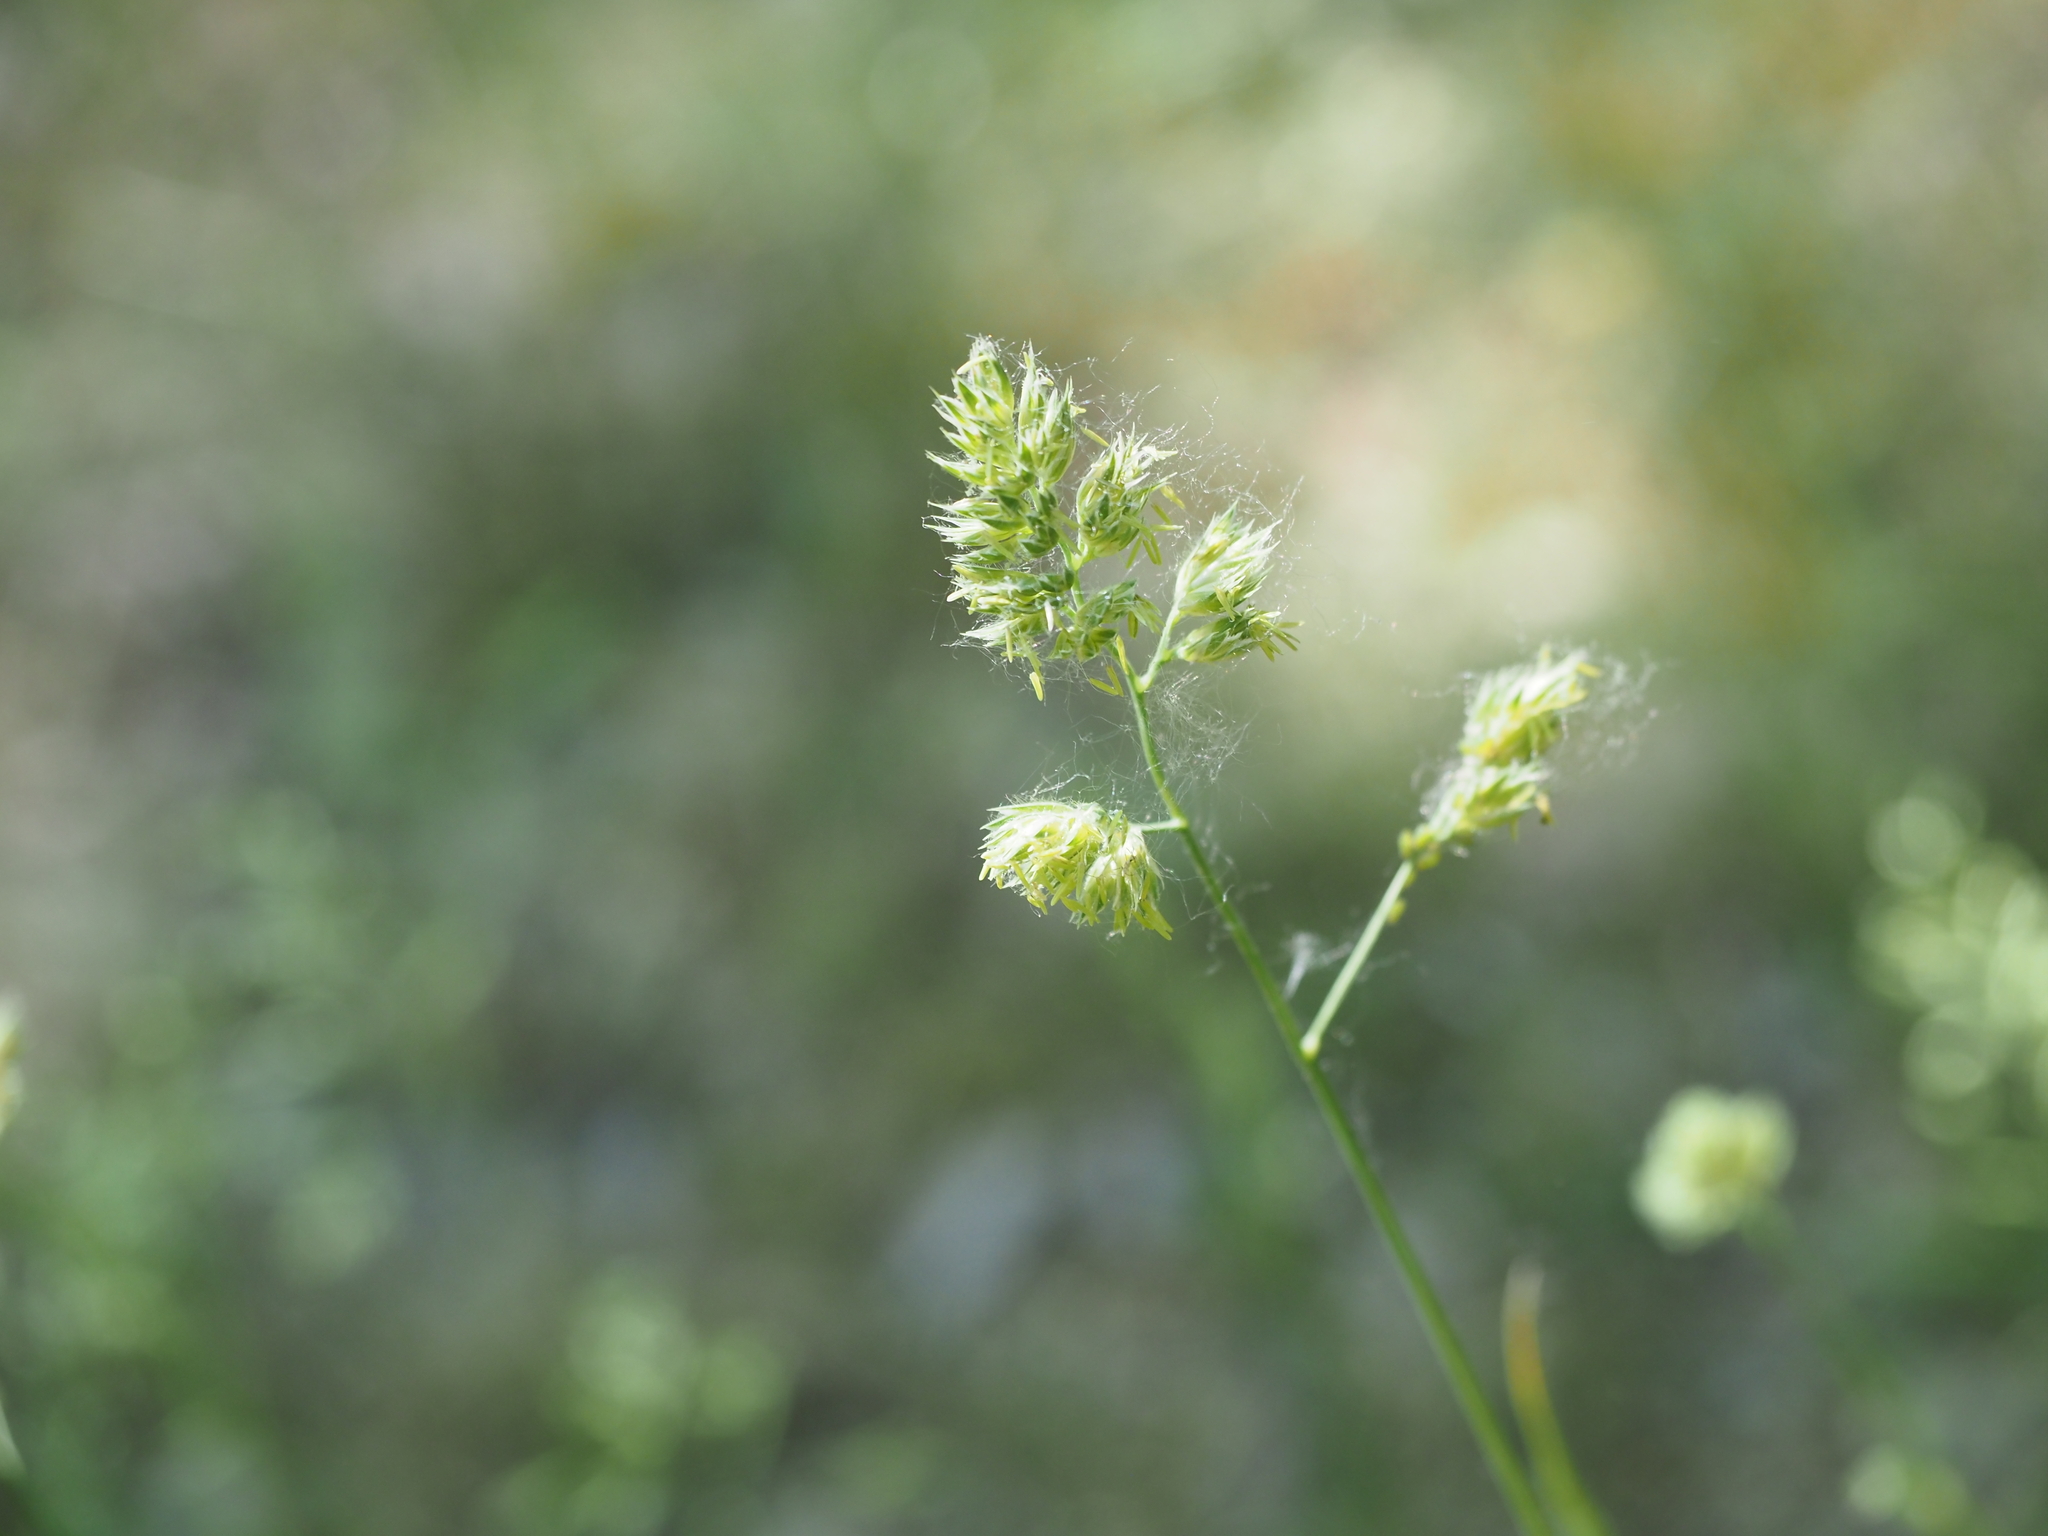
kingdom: Plantae
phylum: Tracheophyta
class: Liliopsida
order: Poales
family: Poaceae
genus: Dactylis
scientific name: Dactylis glomerata
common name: Orchardgrass
